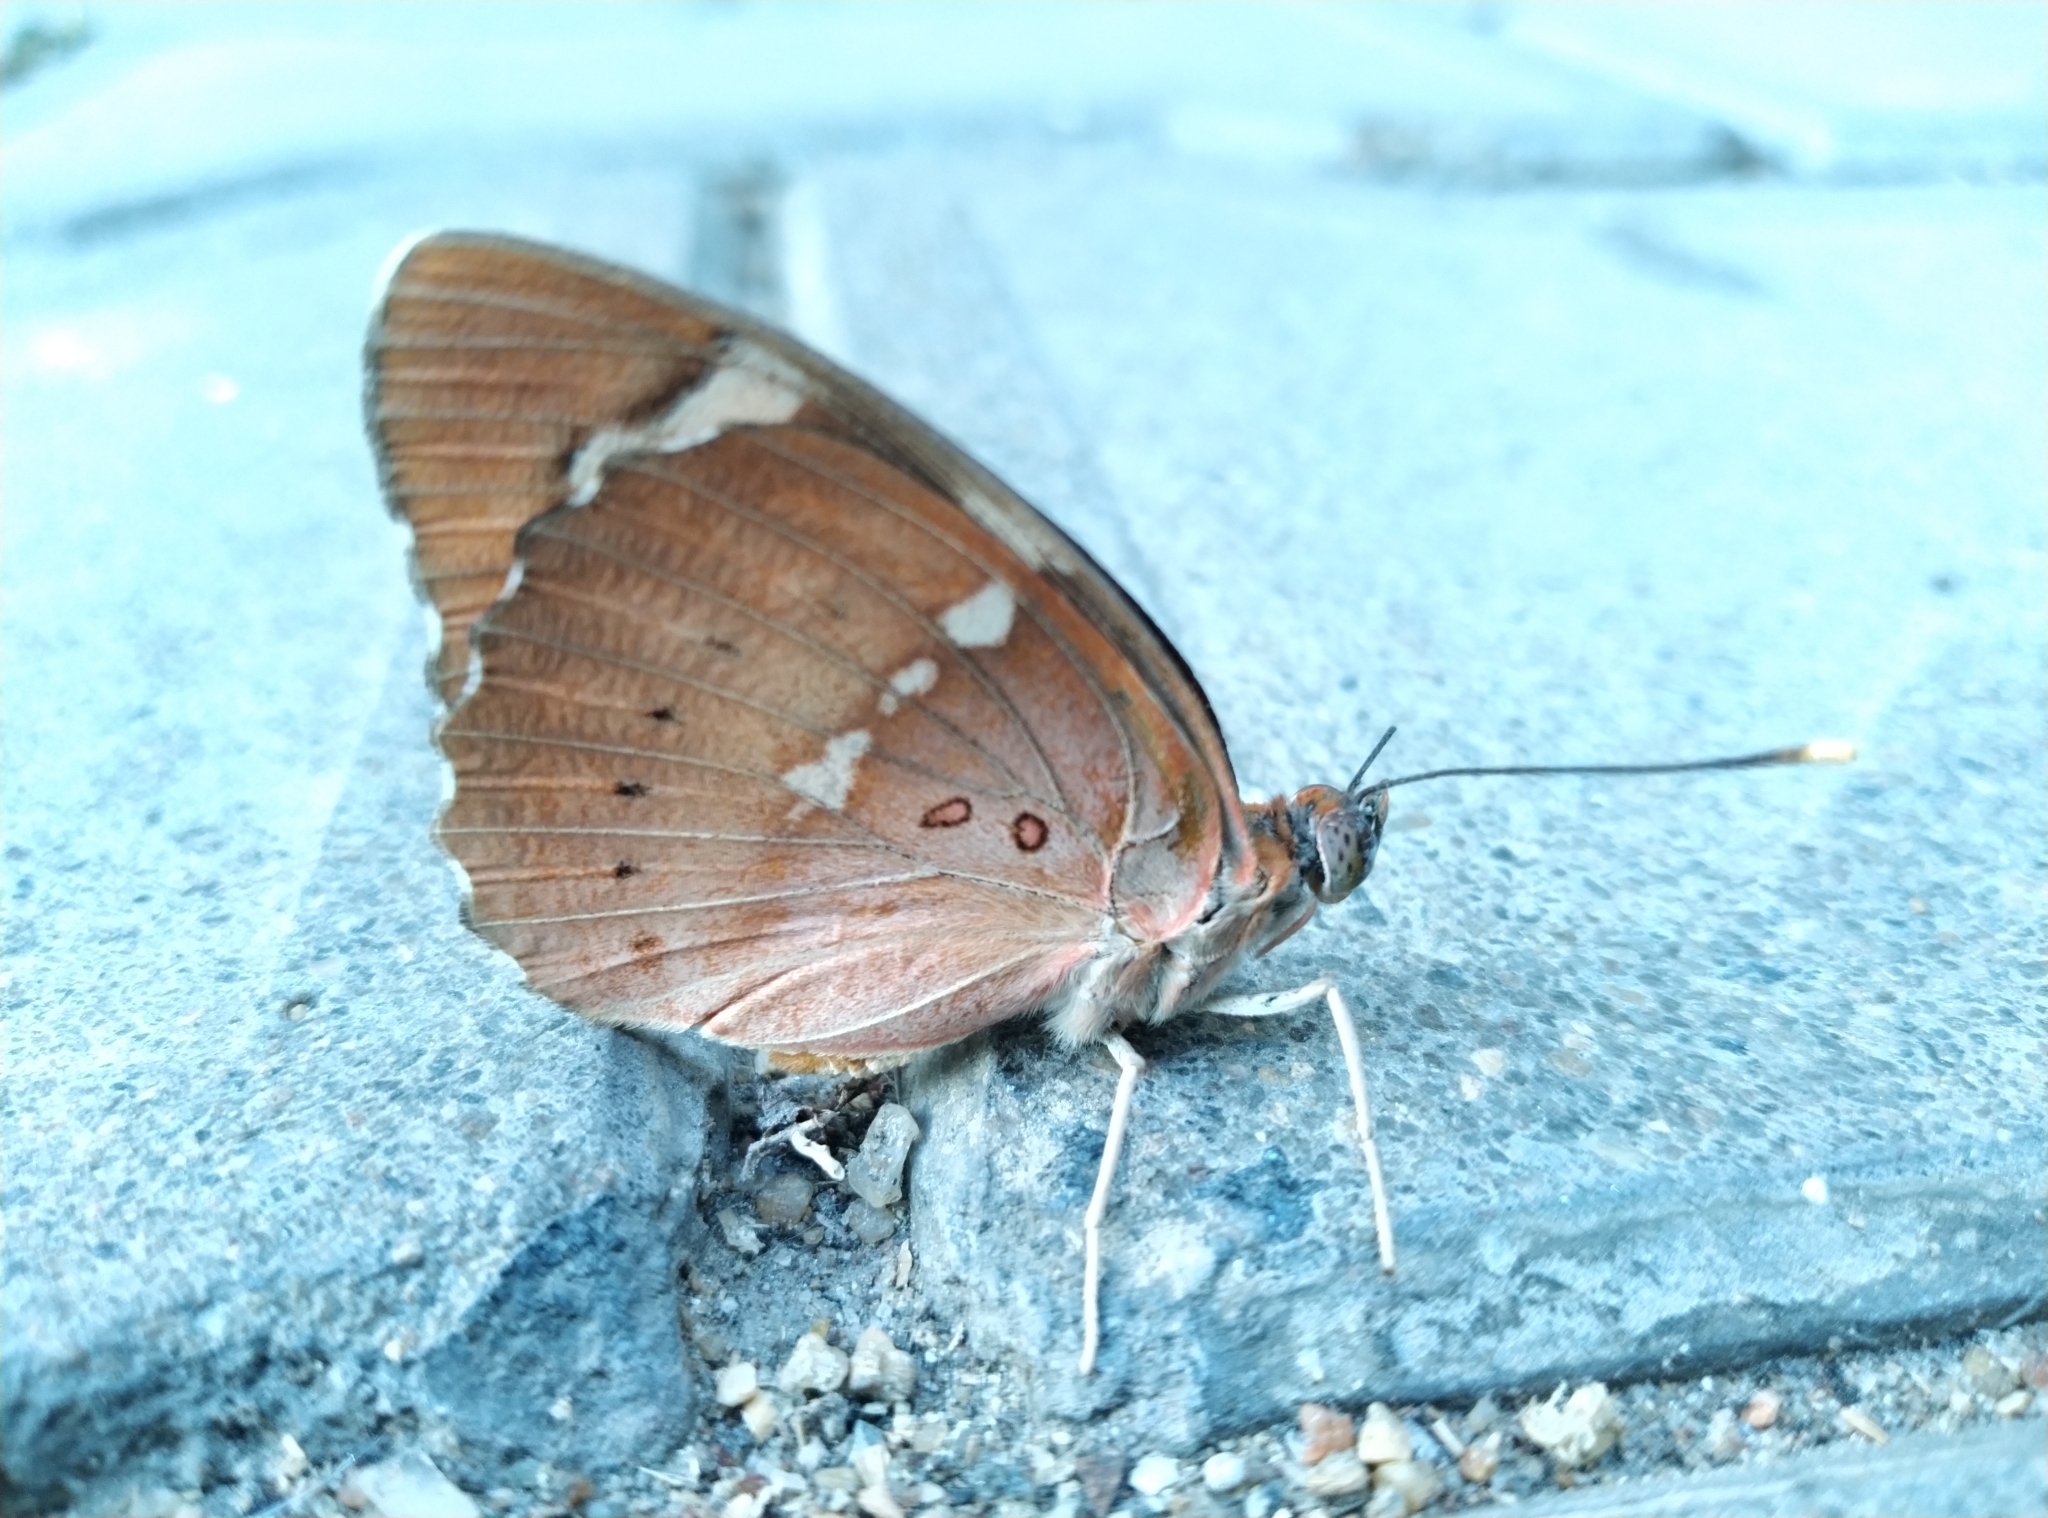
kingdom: Animalia
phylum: Arthropoda
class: Insecta
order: Lepidoptera
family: Nymphalidae
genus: Euthalia
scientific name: Euthalia nais
